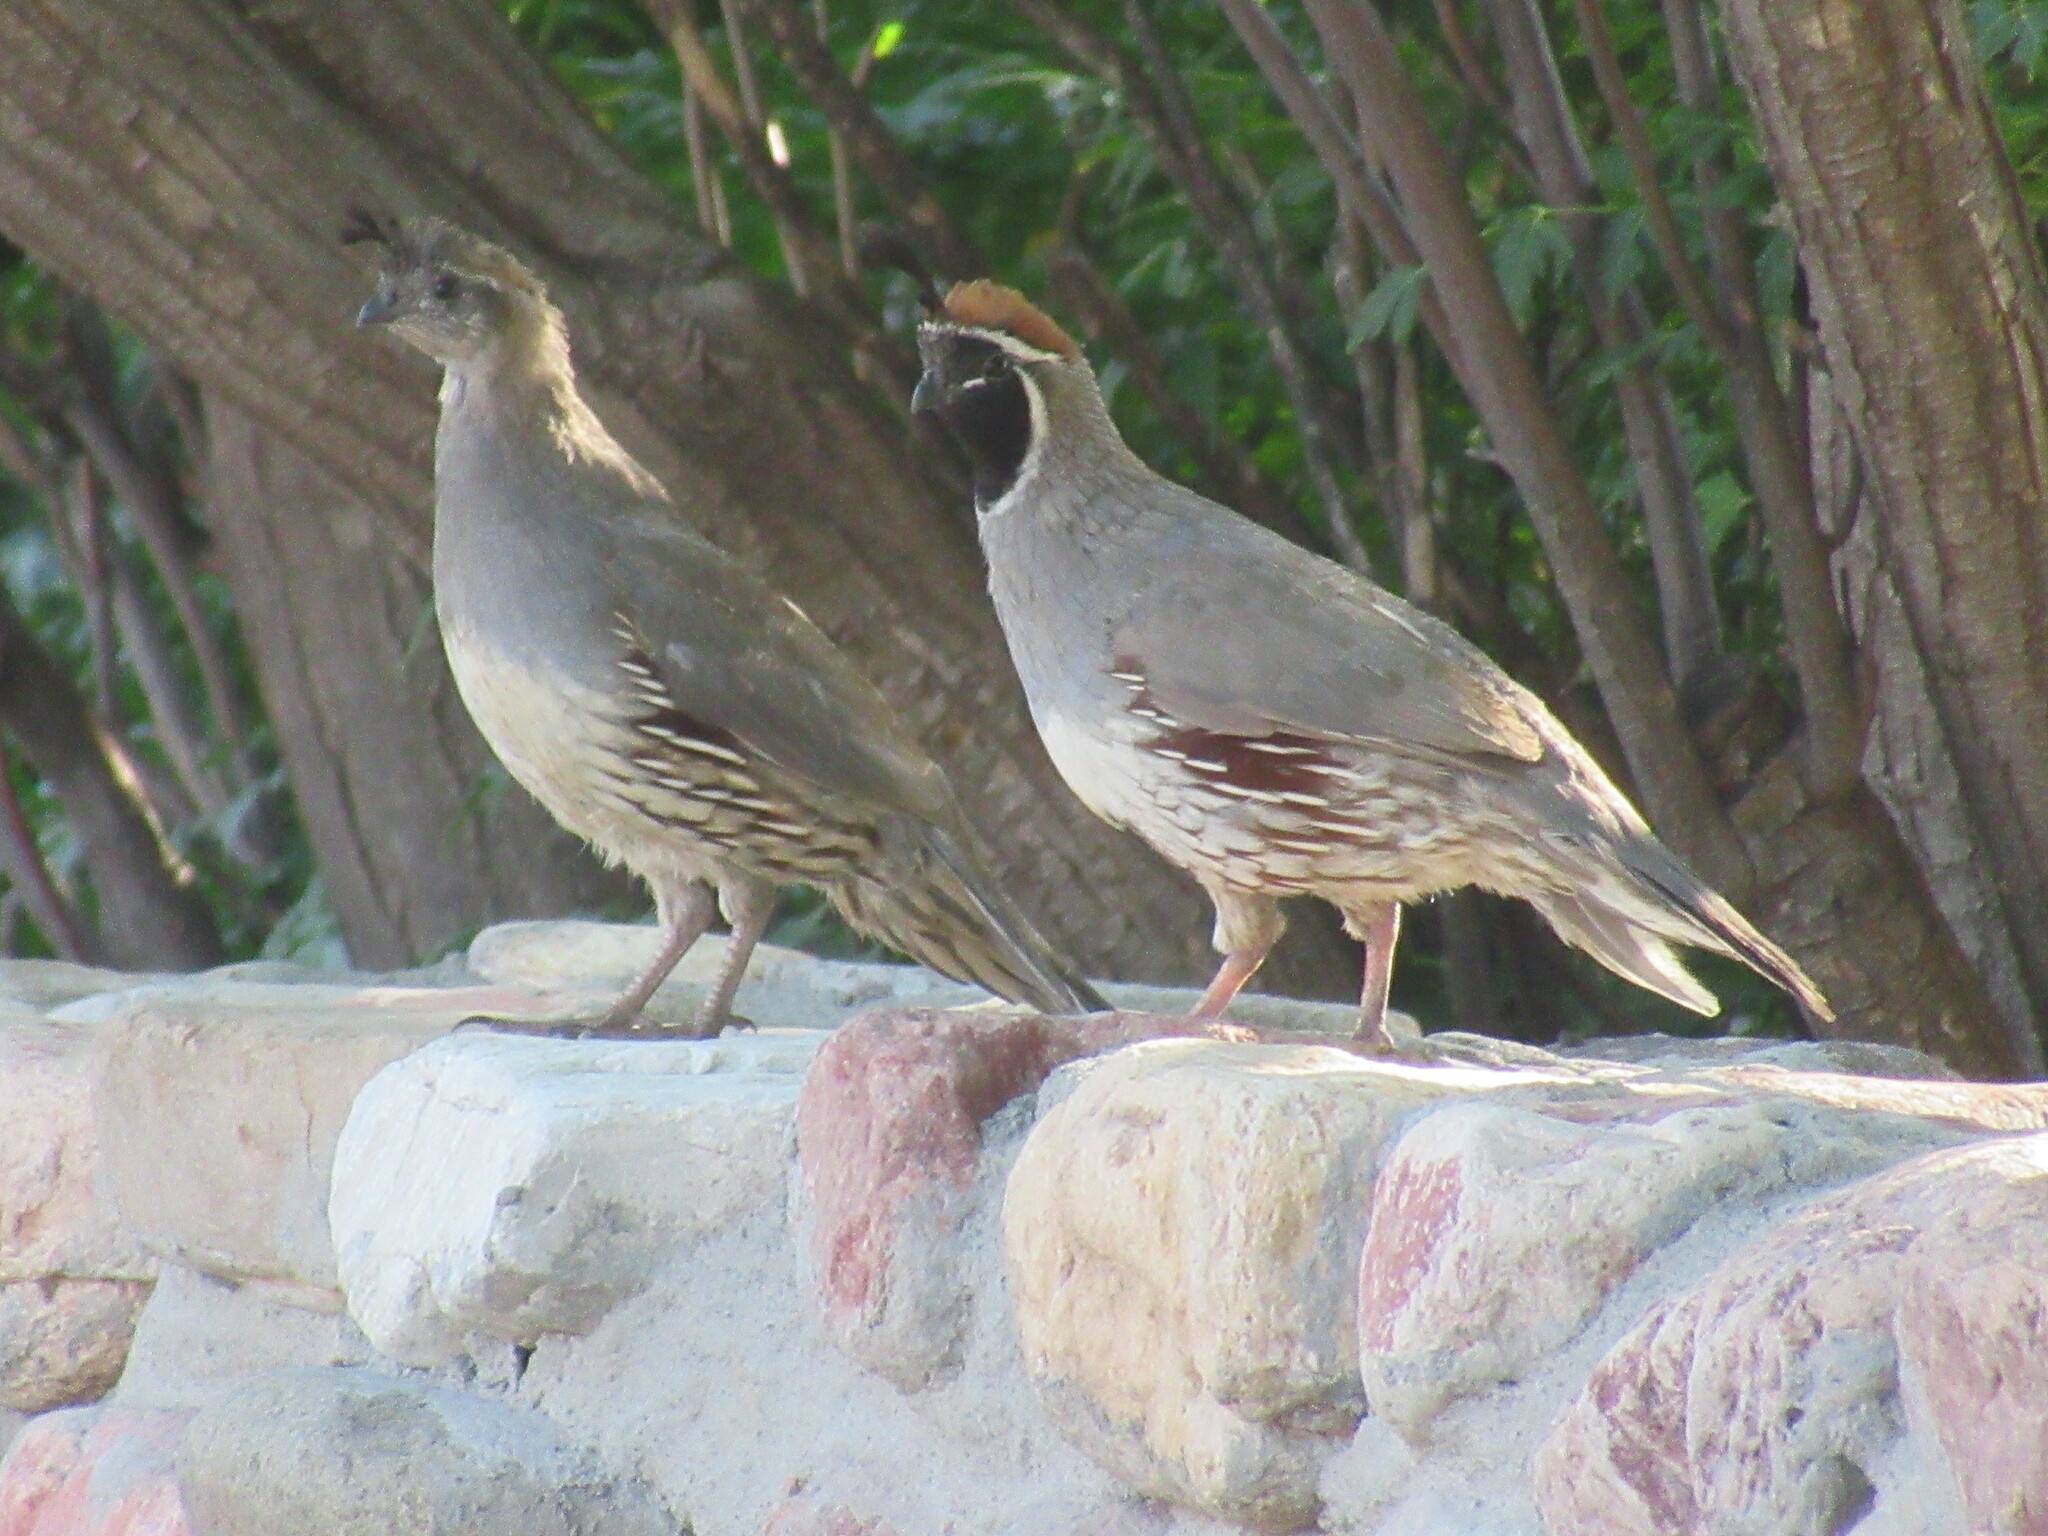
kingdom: Animalia
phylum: Chordata
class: Aves
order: Galliformes
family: Odontophoridae
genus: Callipepla
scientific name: Callipepla gambelii
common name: Gambel's quail
